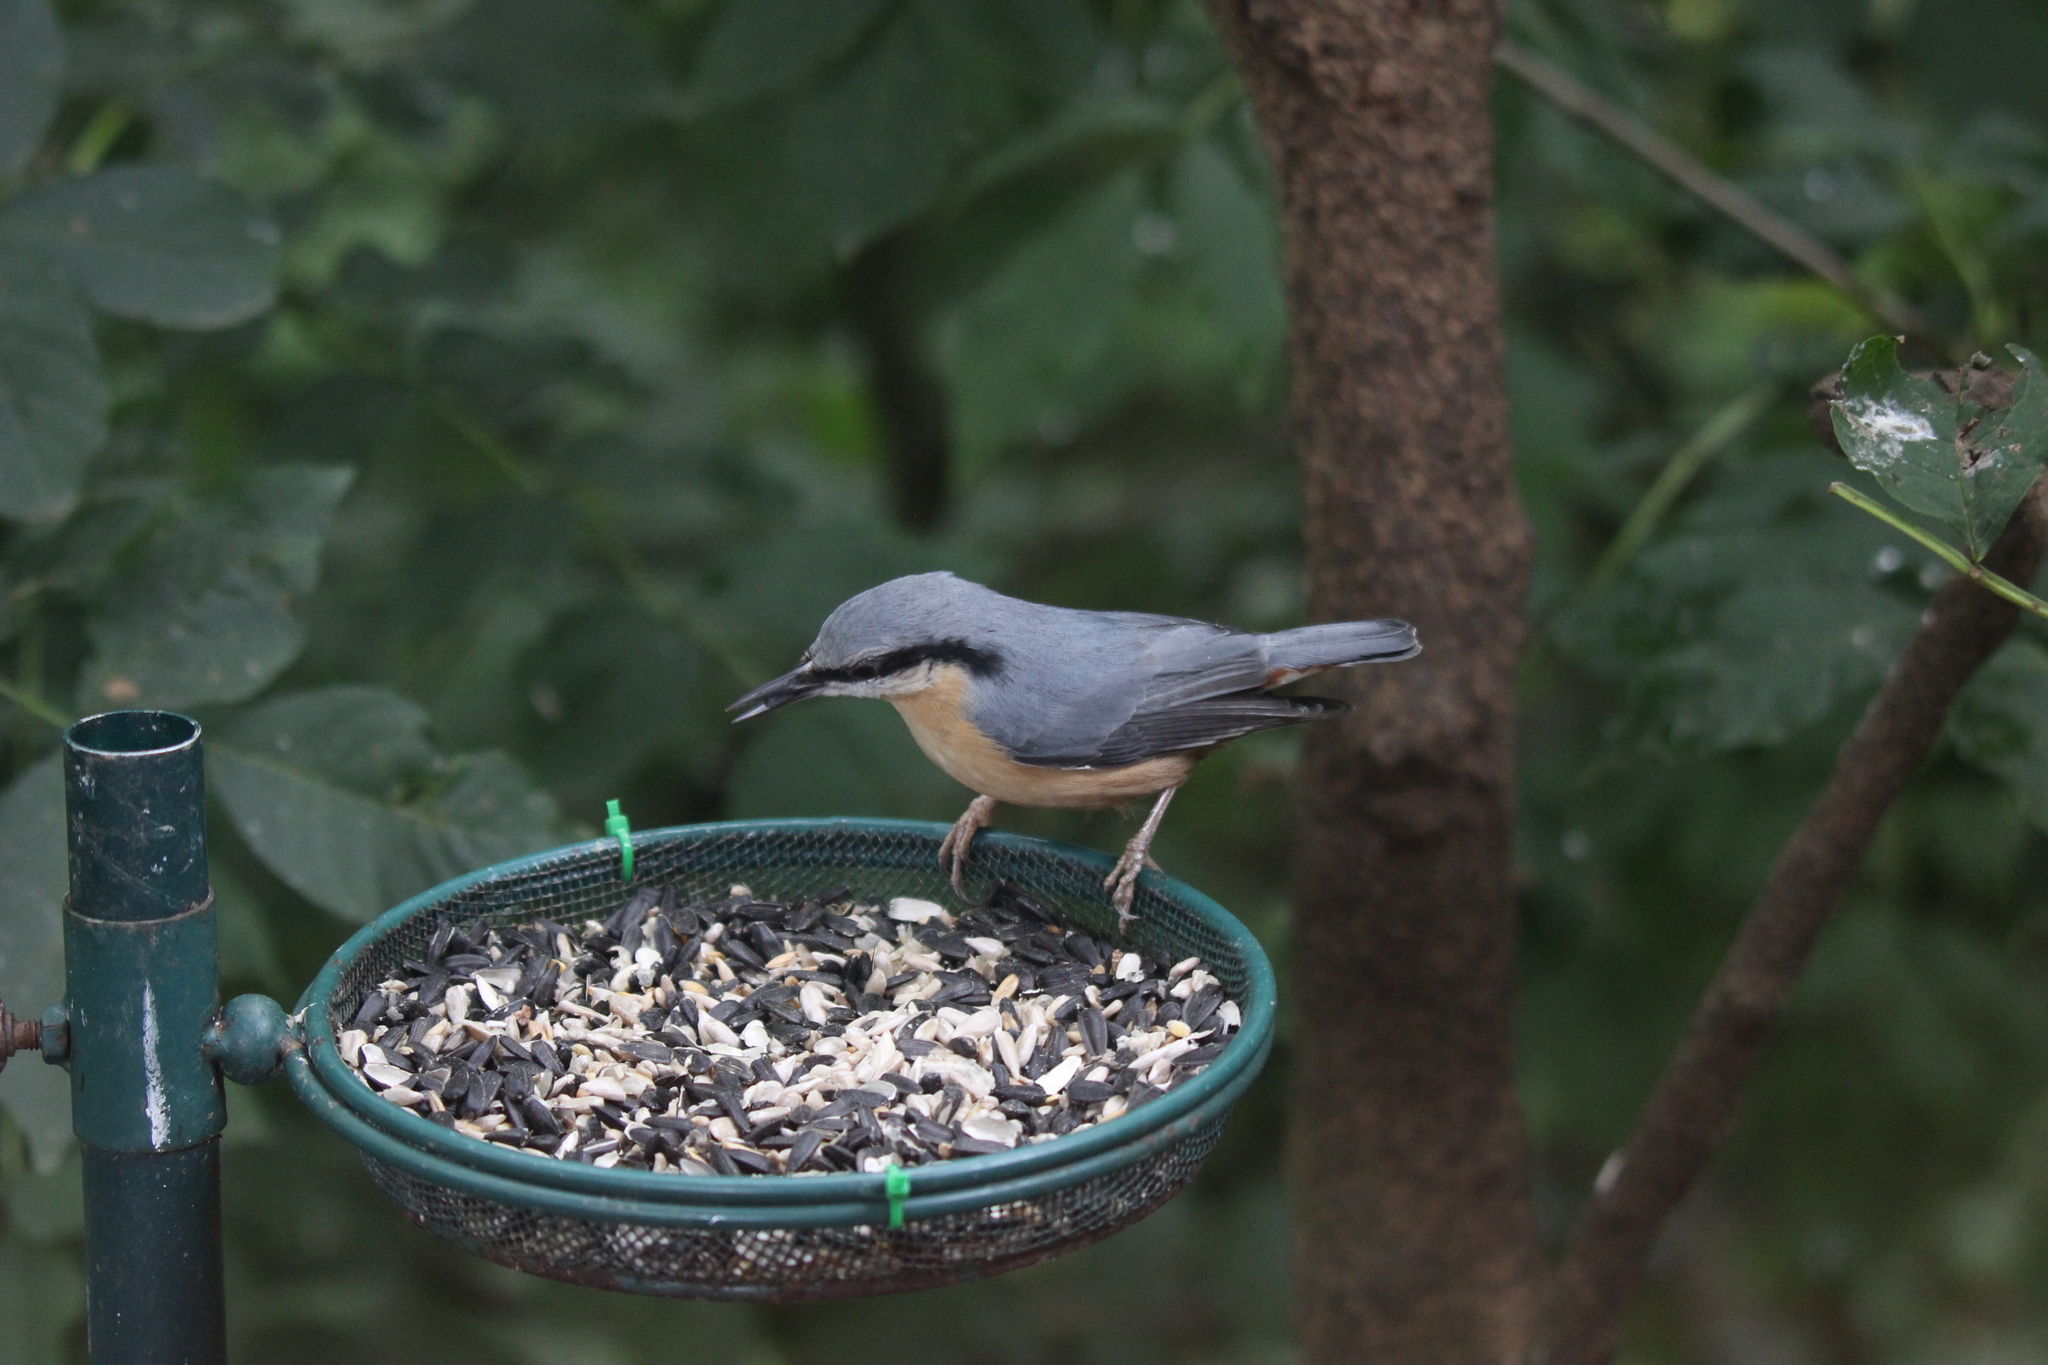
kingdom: Animalia
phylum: Chordata
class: Aves
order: Passeriformes
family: Sittidae
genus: Sitta
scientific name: Sitta europaea
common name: Eurasian nuthatch
